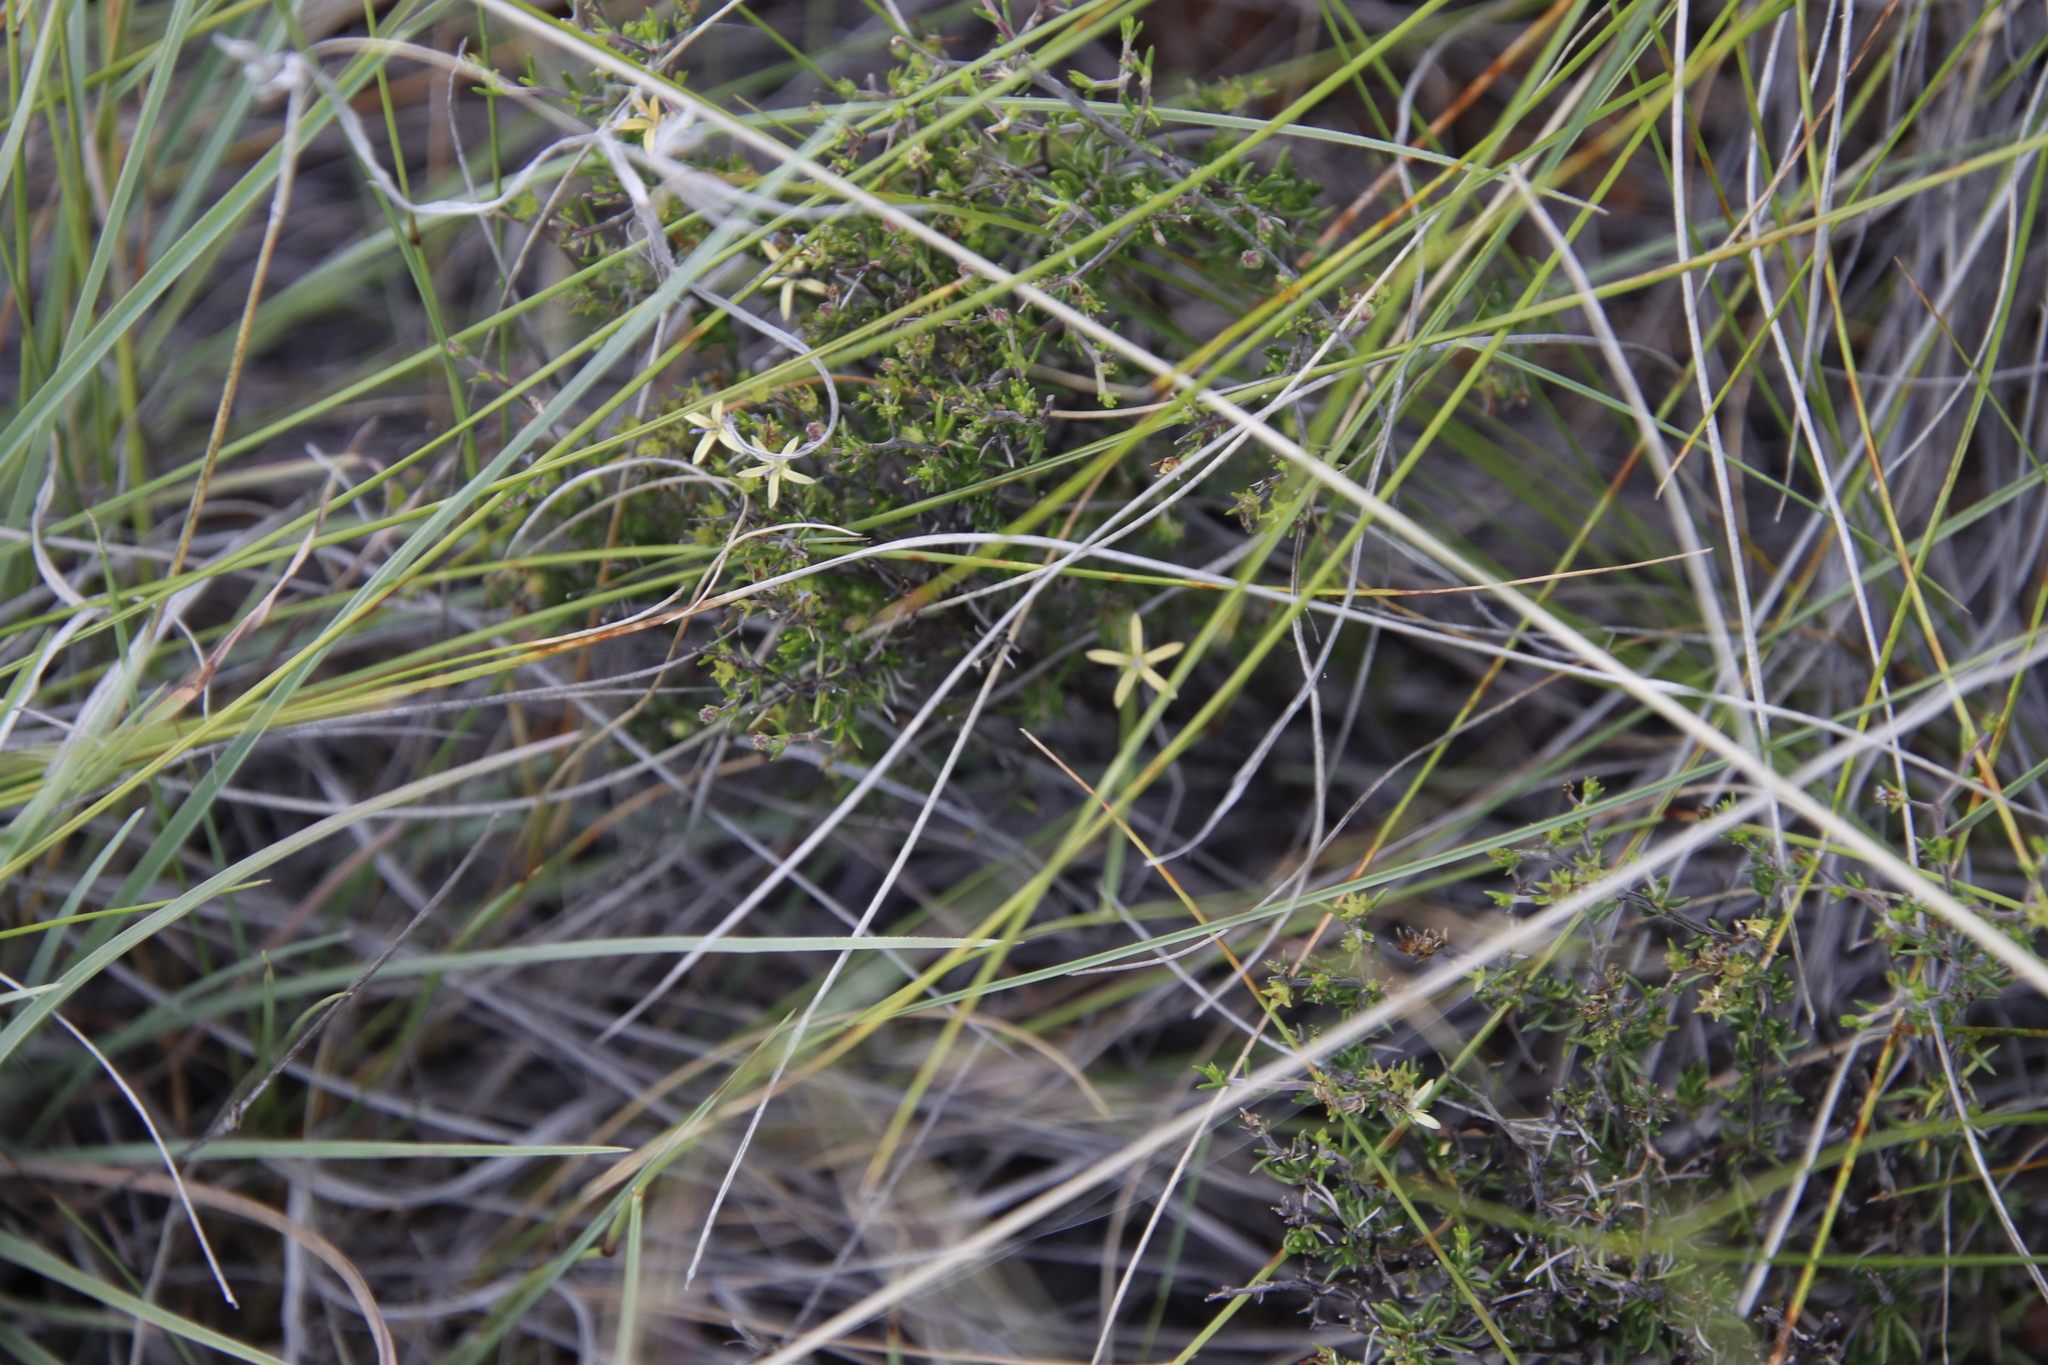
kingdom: Plantae
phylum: Tracheophyta
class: Magnoliopsida
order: Asterales
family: Campanulaceae
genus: Wahlenbergia
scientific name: Wahlenbergia albens
